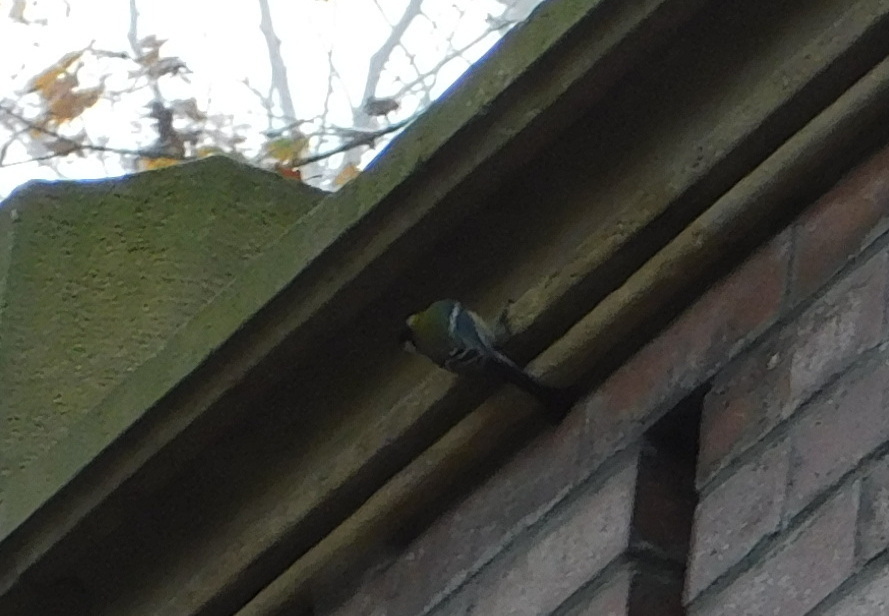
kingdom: Animalia
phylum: Chordata
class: Aves
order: Passeriformes
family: Paridae
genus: Parus
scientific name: Parus major
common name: Great tit
